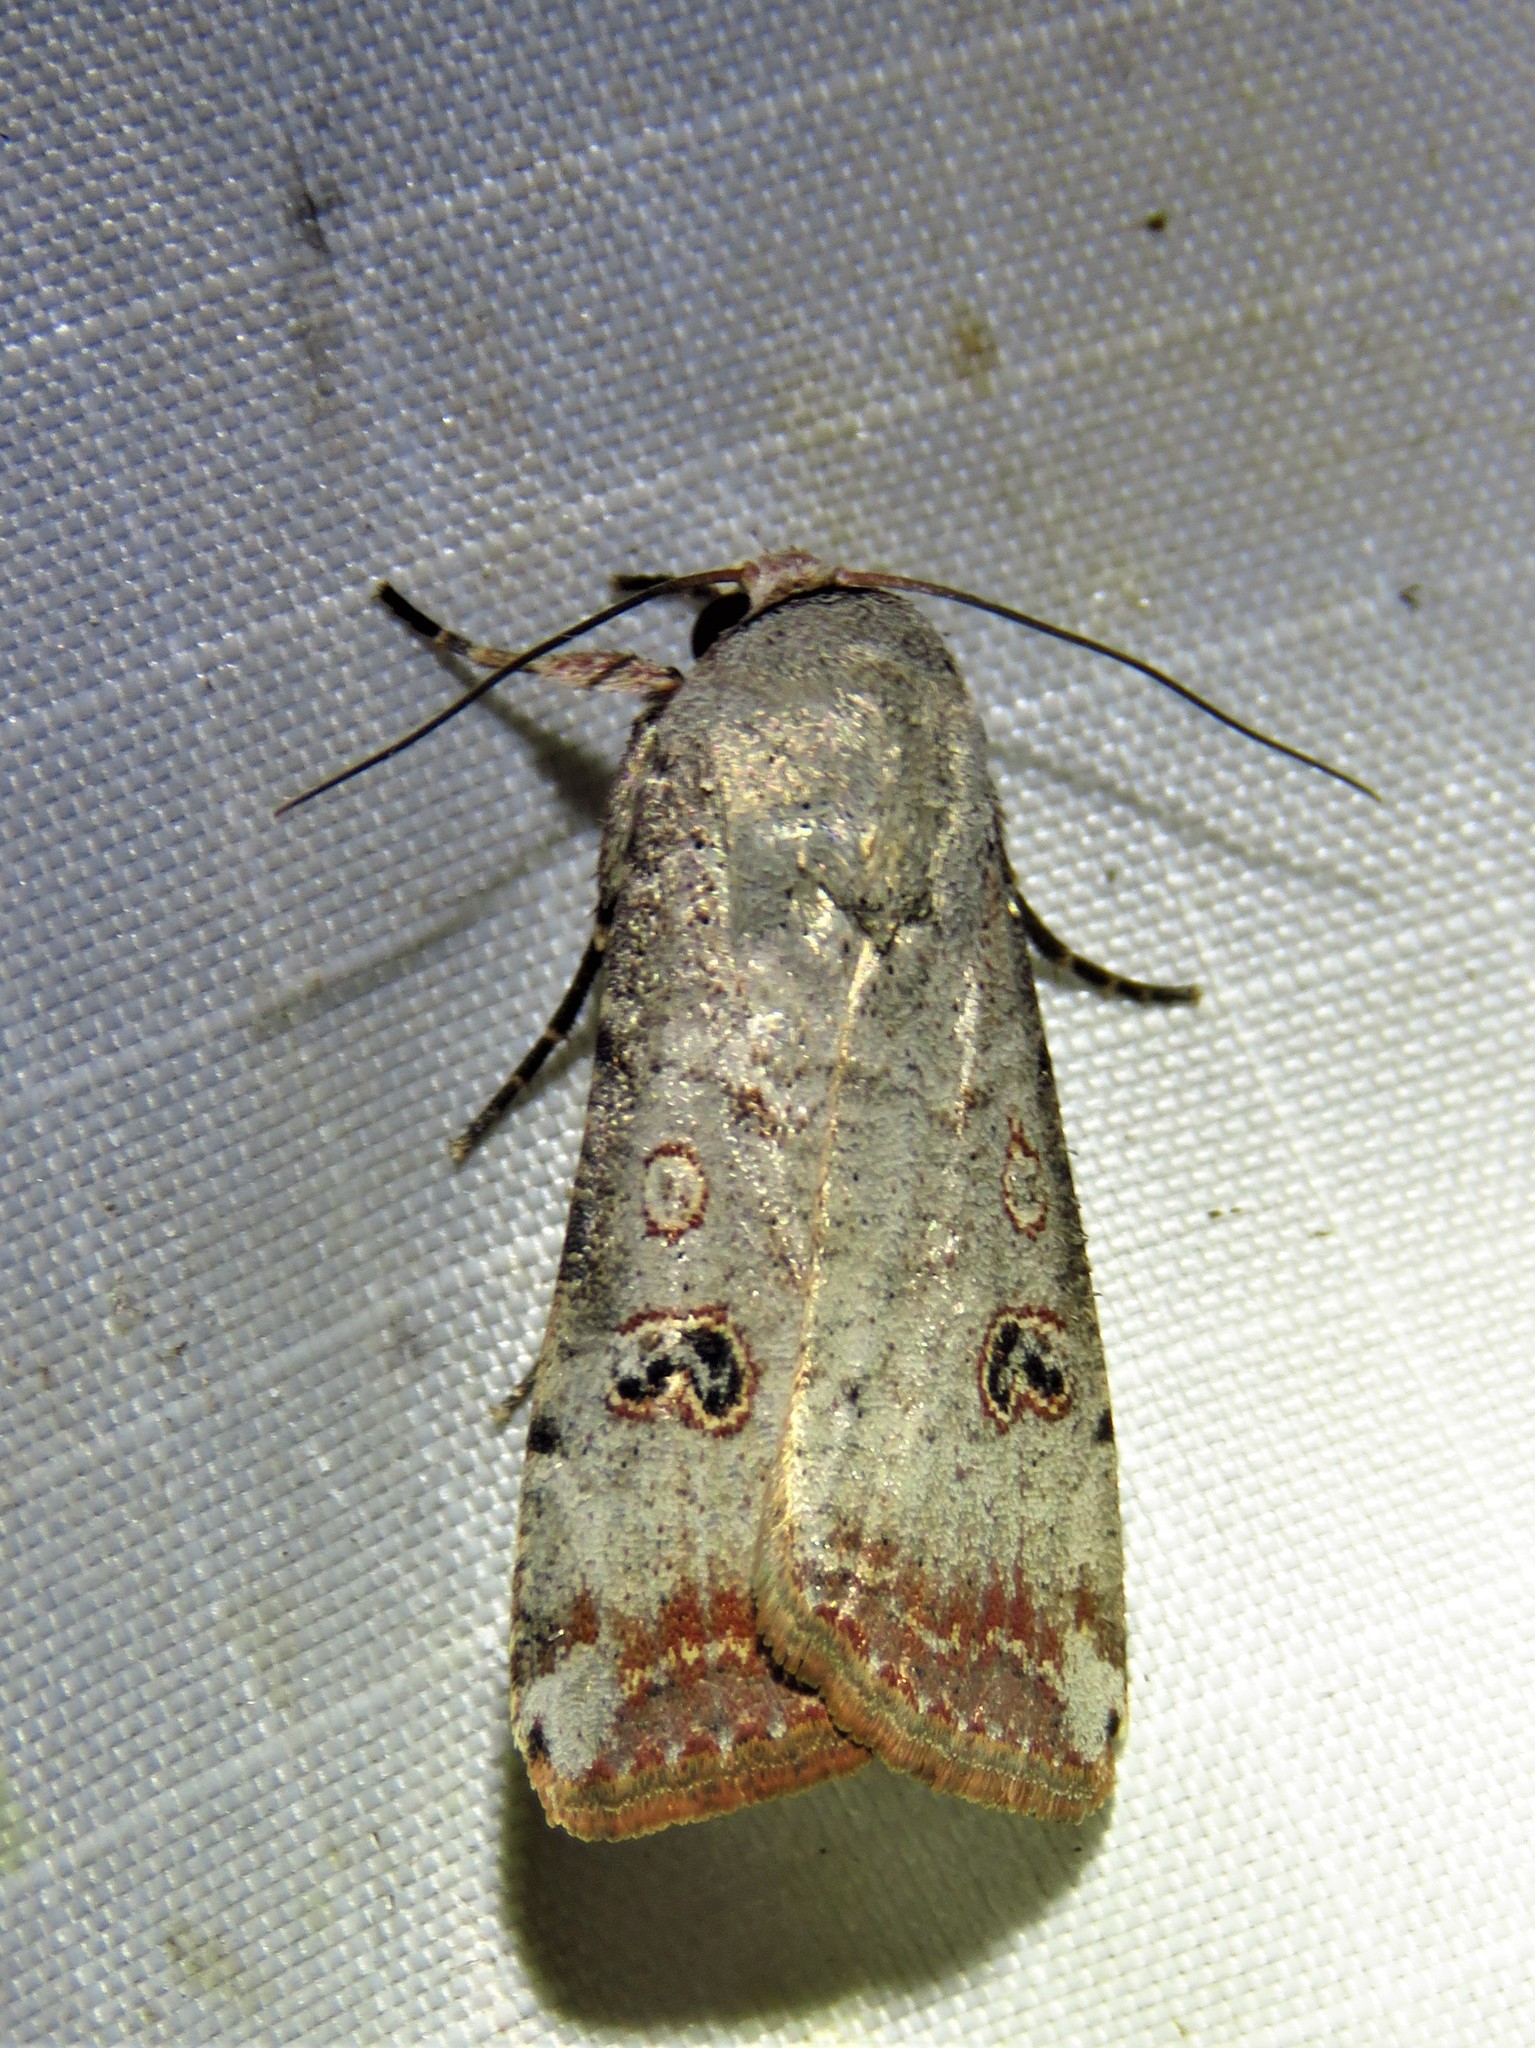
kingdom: Animalia
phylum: Arthropoda
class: Insecta
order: Lepidoptera
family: Noctuidae
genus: Anicla
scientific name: Anicla infecta
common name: Green cutworm
